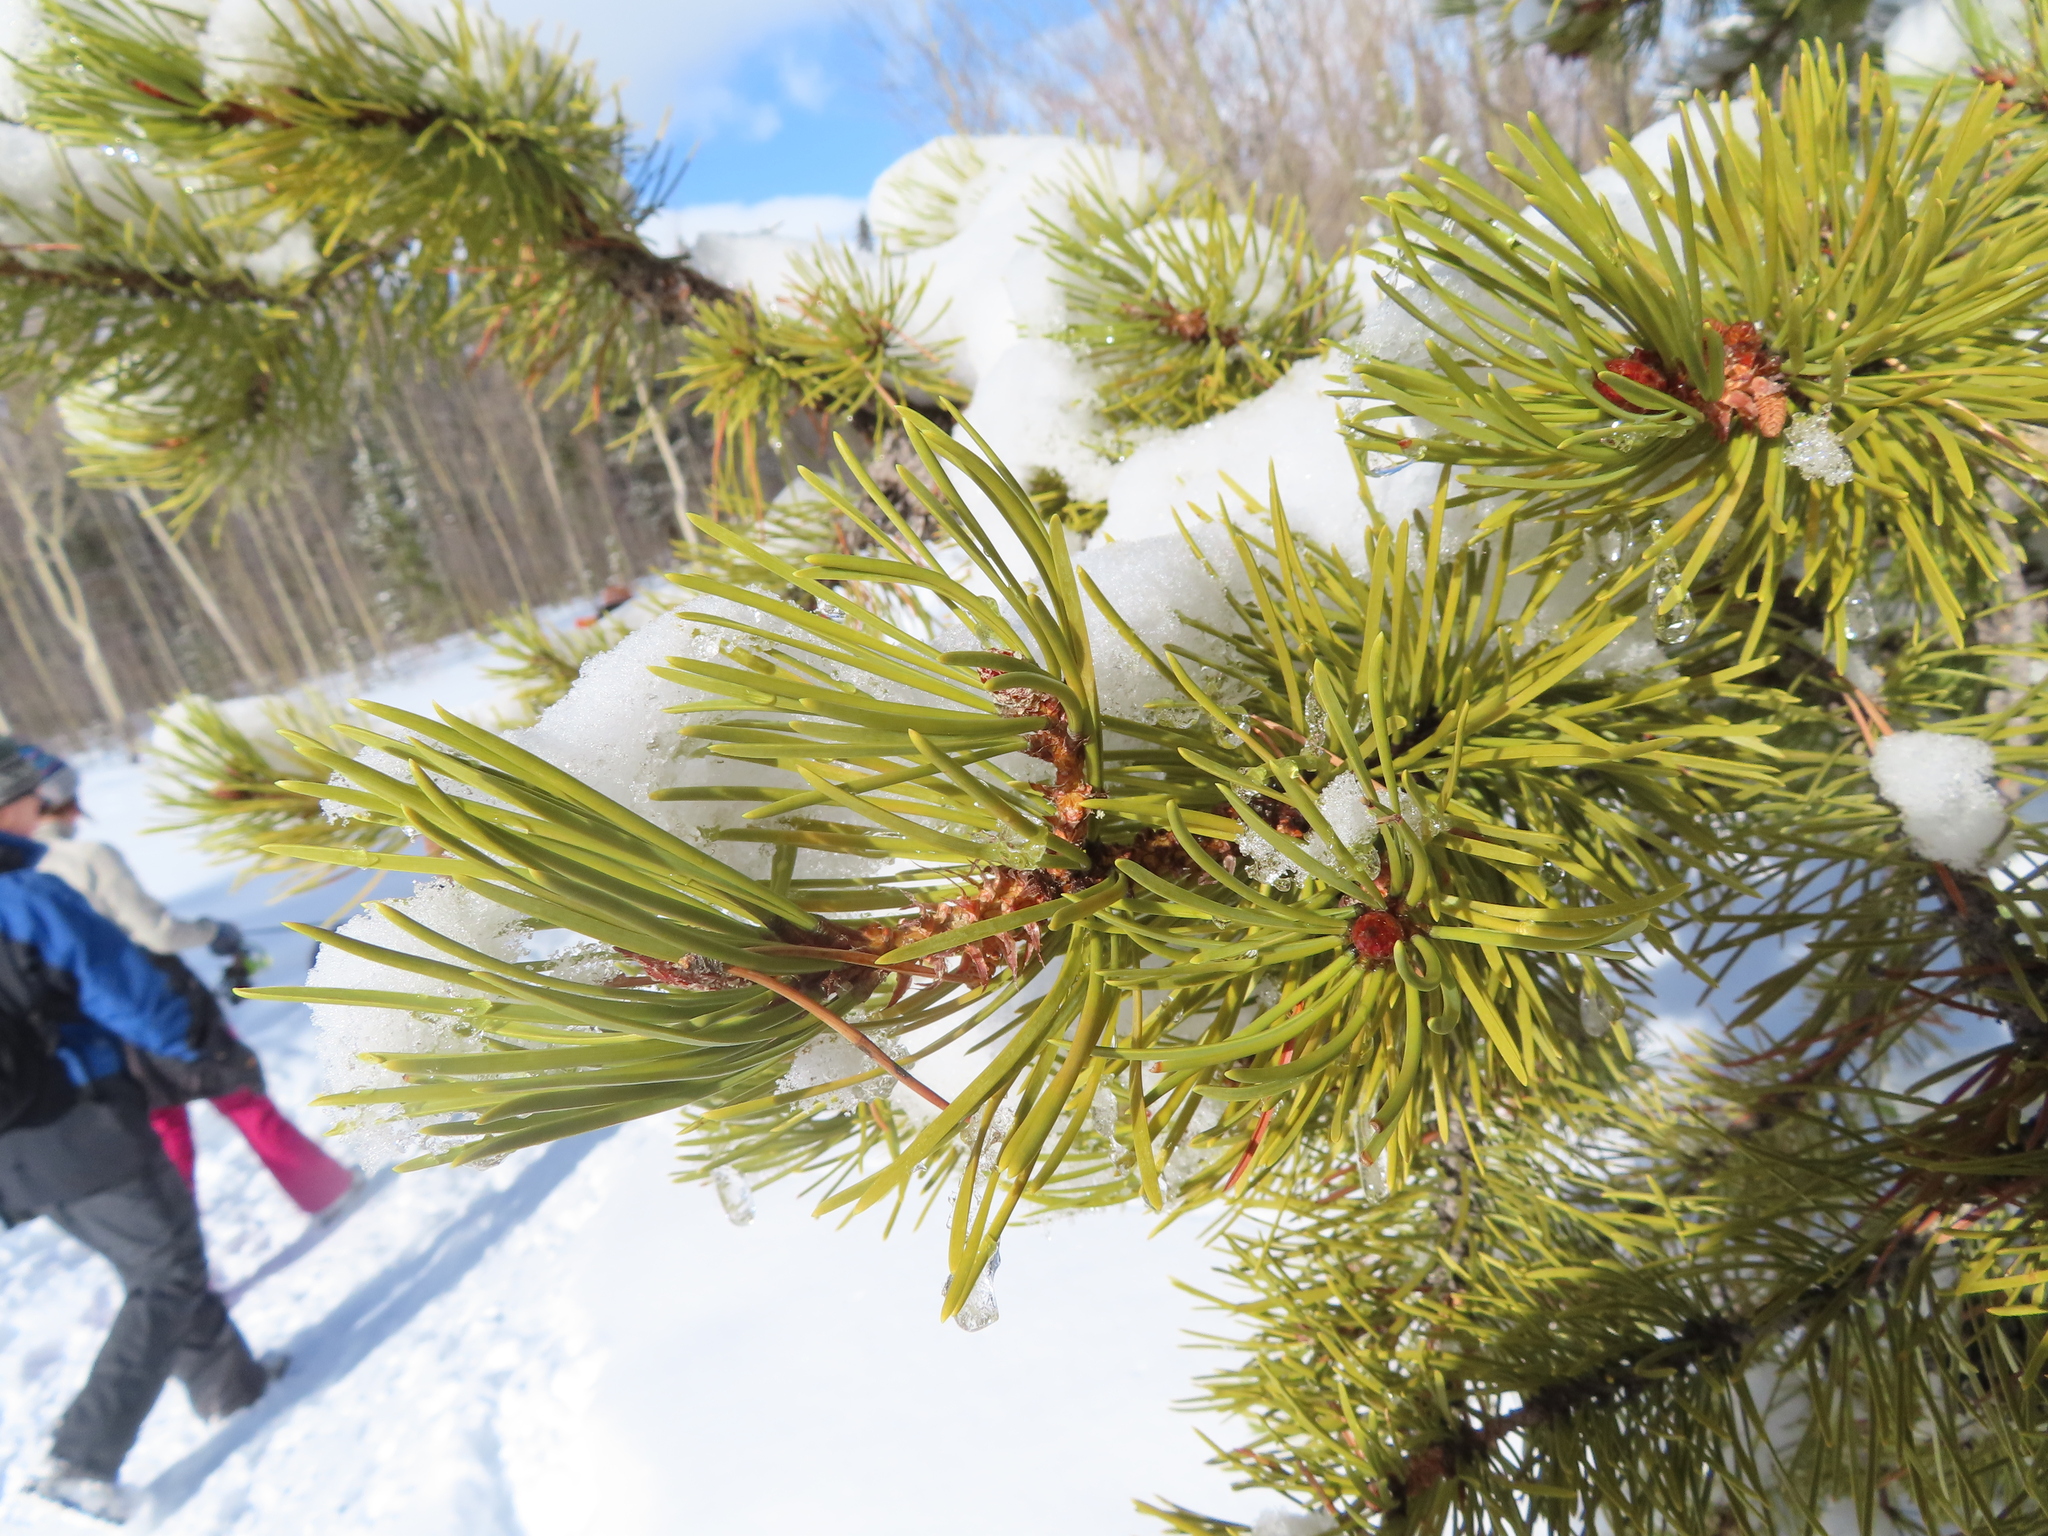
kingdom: Plantae
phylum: Tracheophyta
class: Pinopsida
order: Pinales
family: Pinaceae
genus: Pinus
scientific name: Pinus contorta
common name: Lodgepole pine
